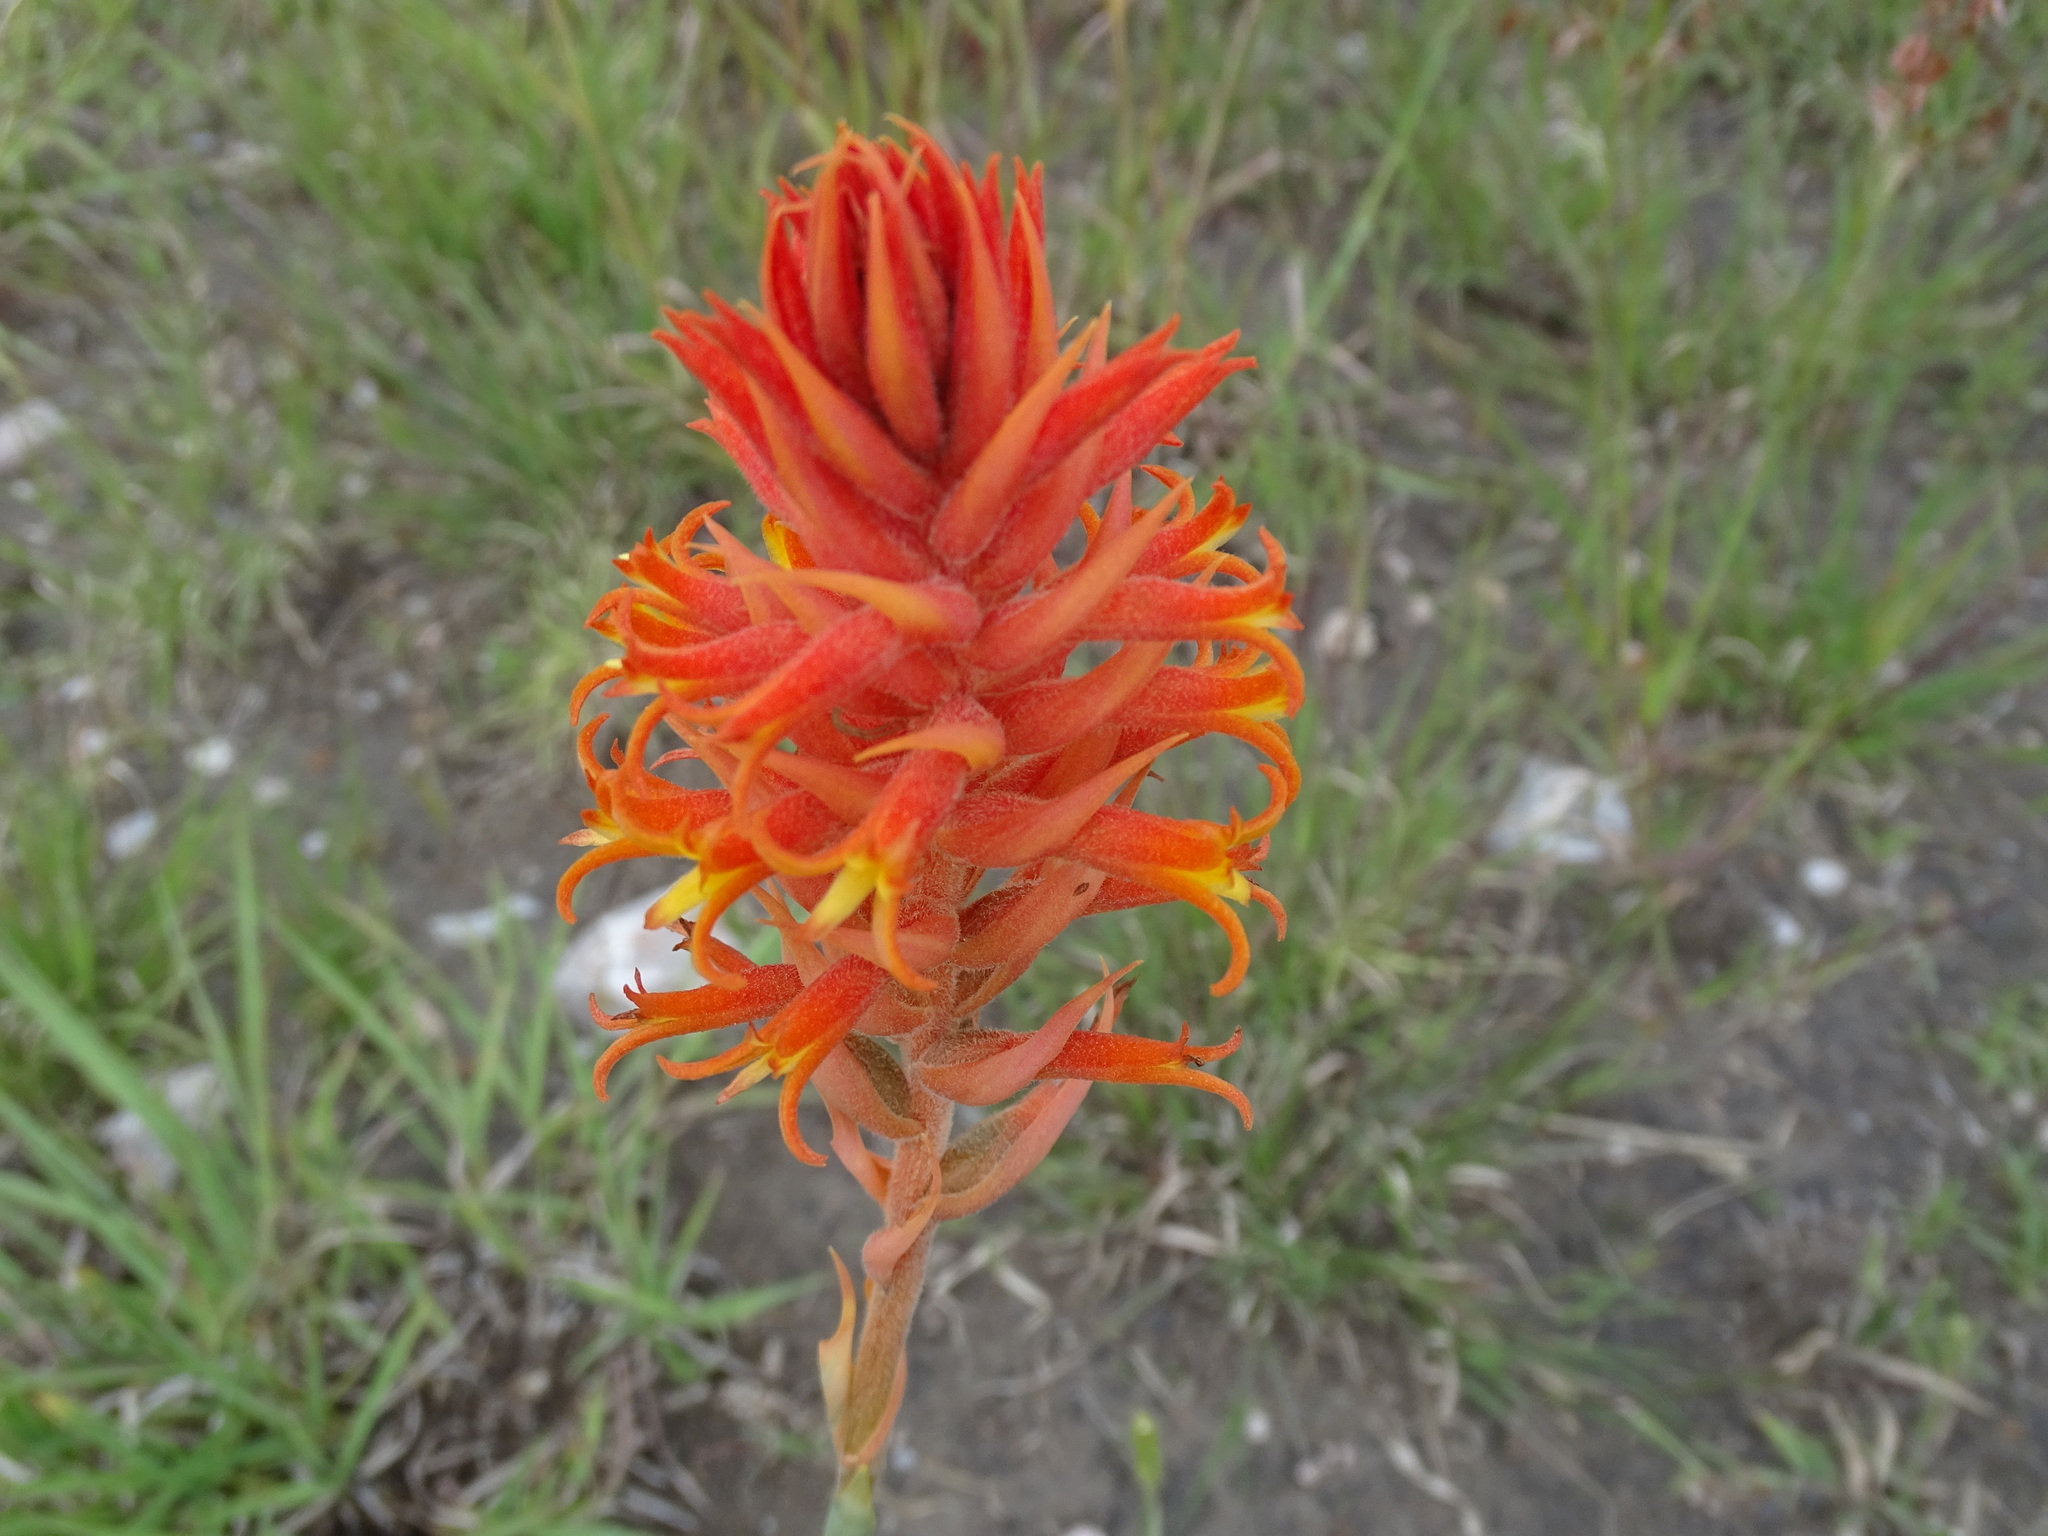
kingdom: Plantae
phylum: Tracheophyta
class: Liliopsida
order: Asparagales
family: Orchidaceae
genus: Dichromanthus
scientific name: Dichromanthus cinnabarinus
